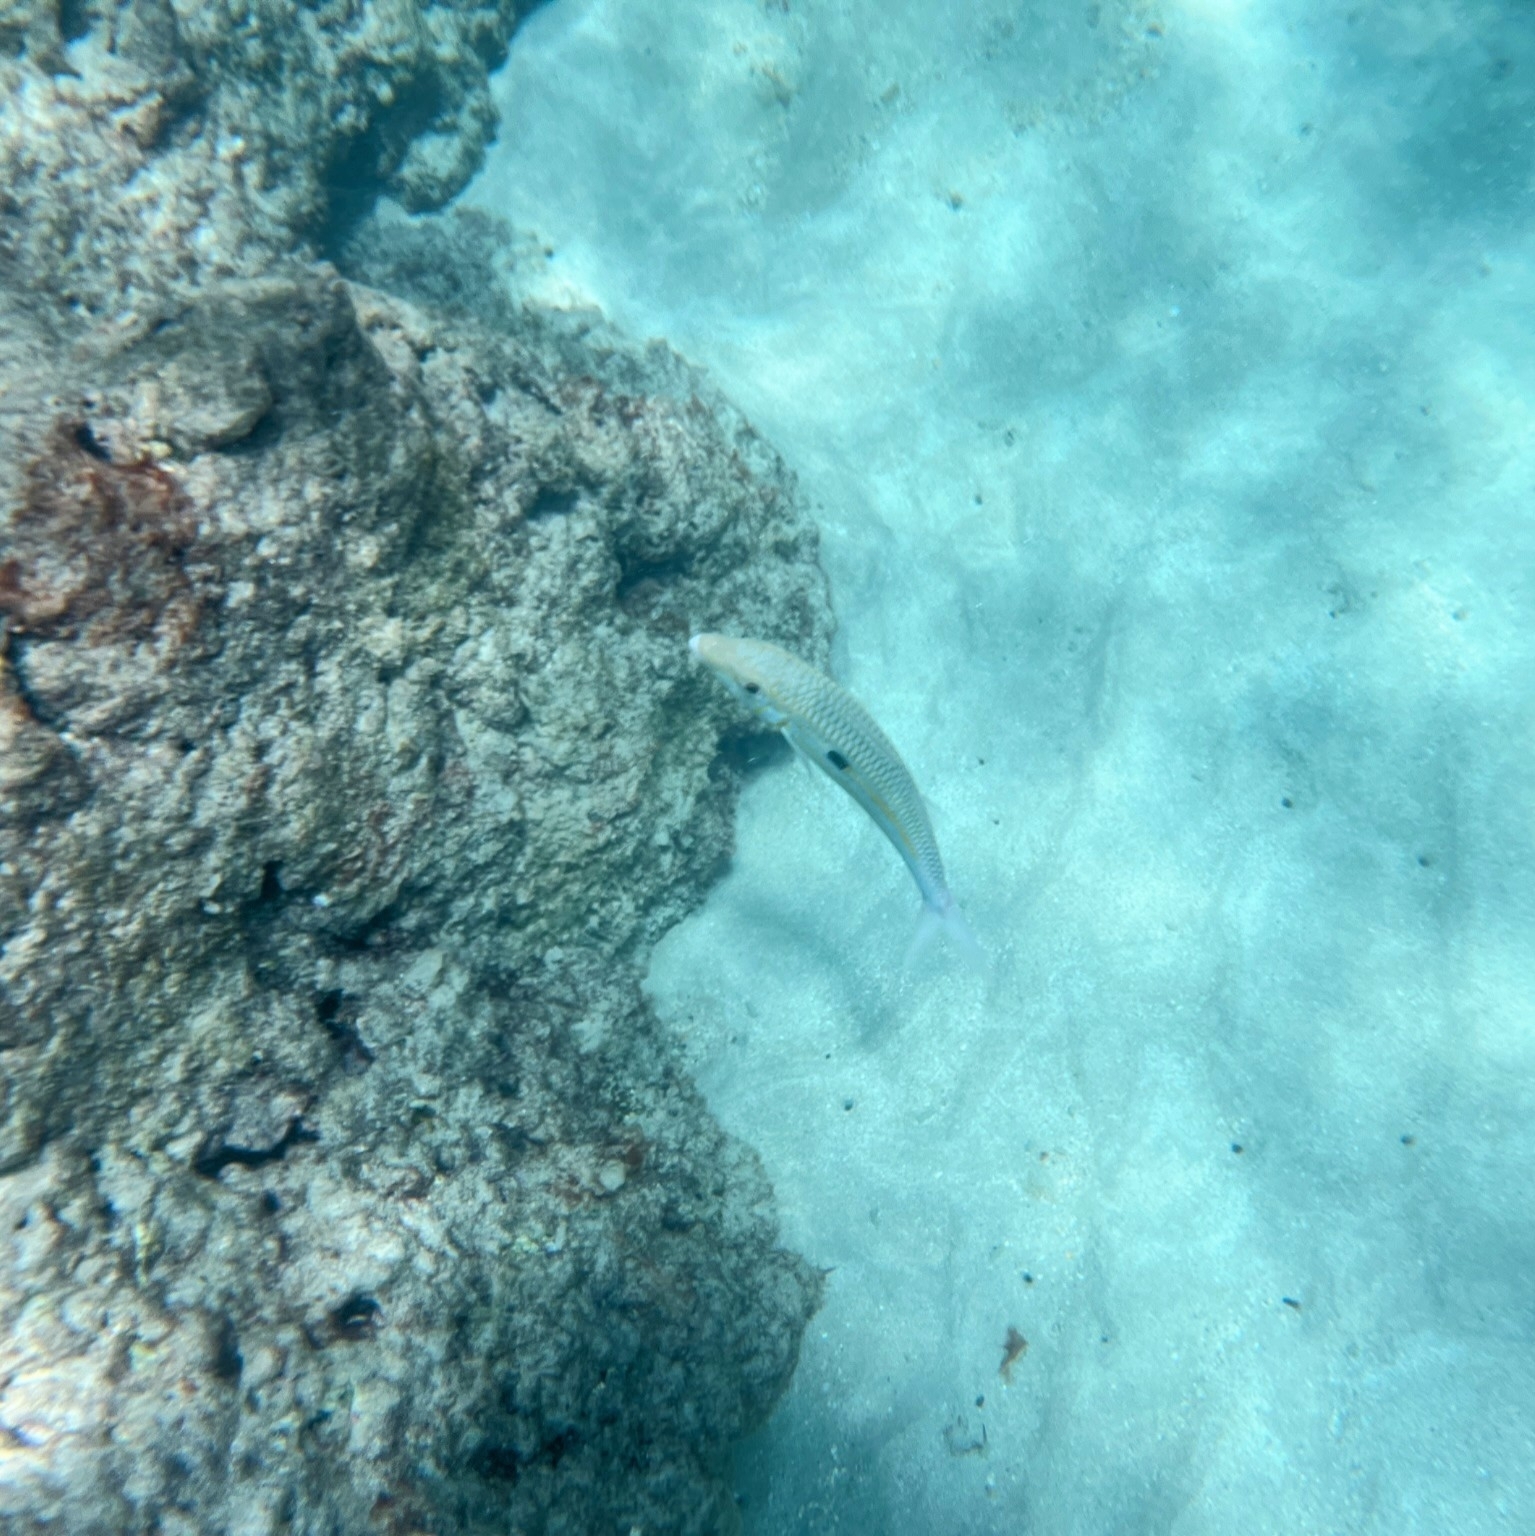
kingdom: Animalia
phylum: Chordata
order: Perciformes
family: Mullidae
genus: Mulloidichthys
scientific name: Mulloidichthys flavolineatus
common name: Yellowstripe goatfish
